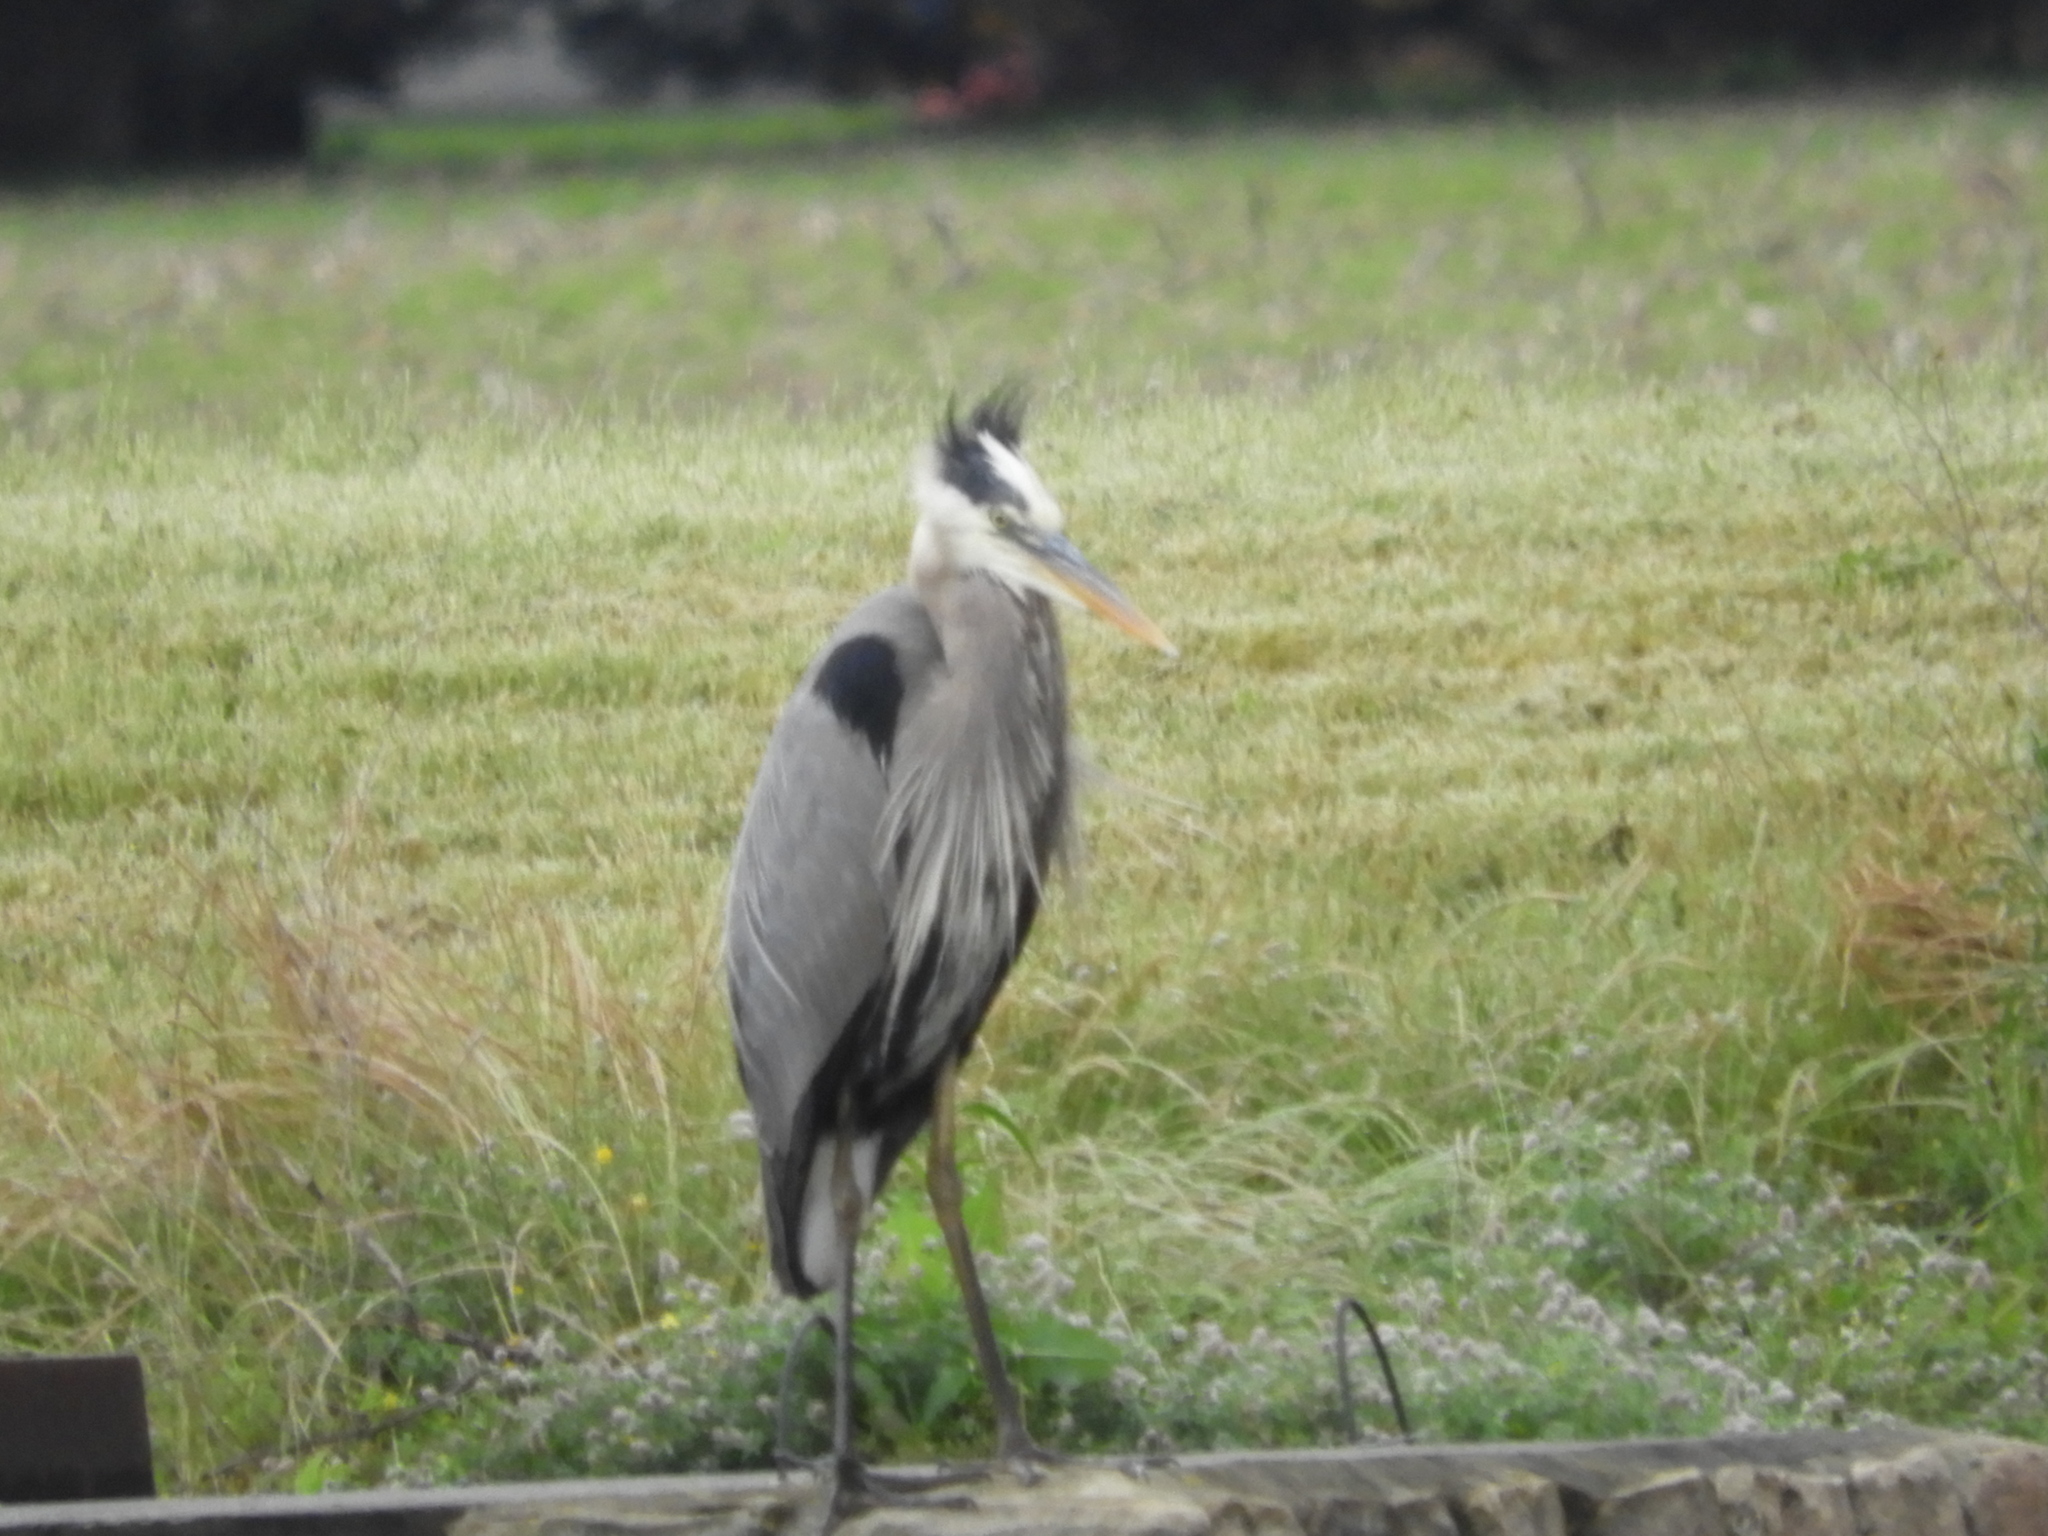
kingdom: Animalia
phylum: Chordata
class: Aves
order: Pelecaniformes
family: Ardeidae
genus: Ardea
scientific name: Ardea herodias
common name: Great blue heron
